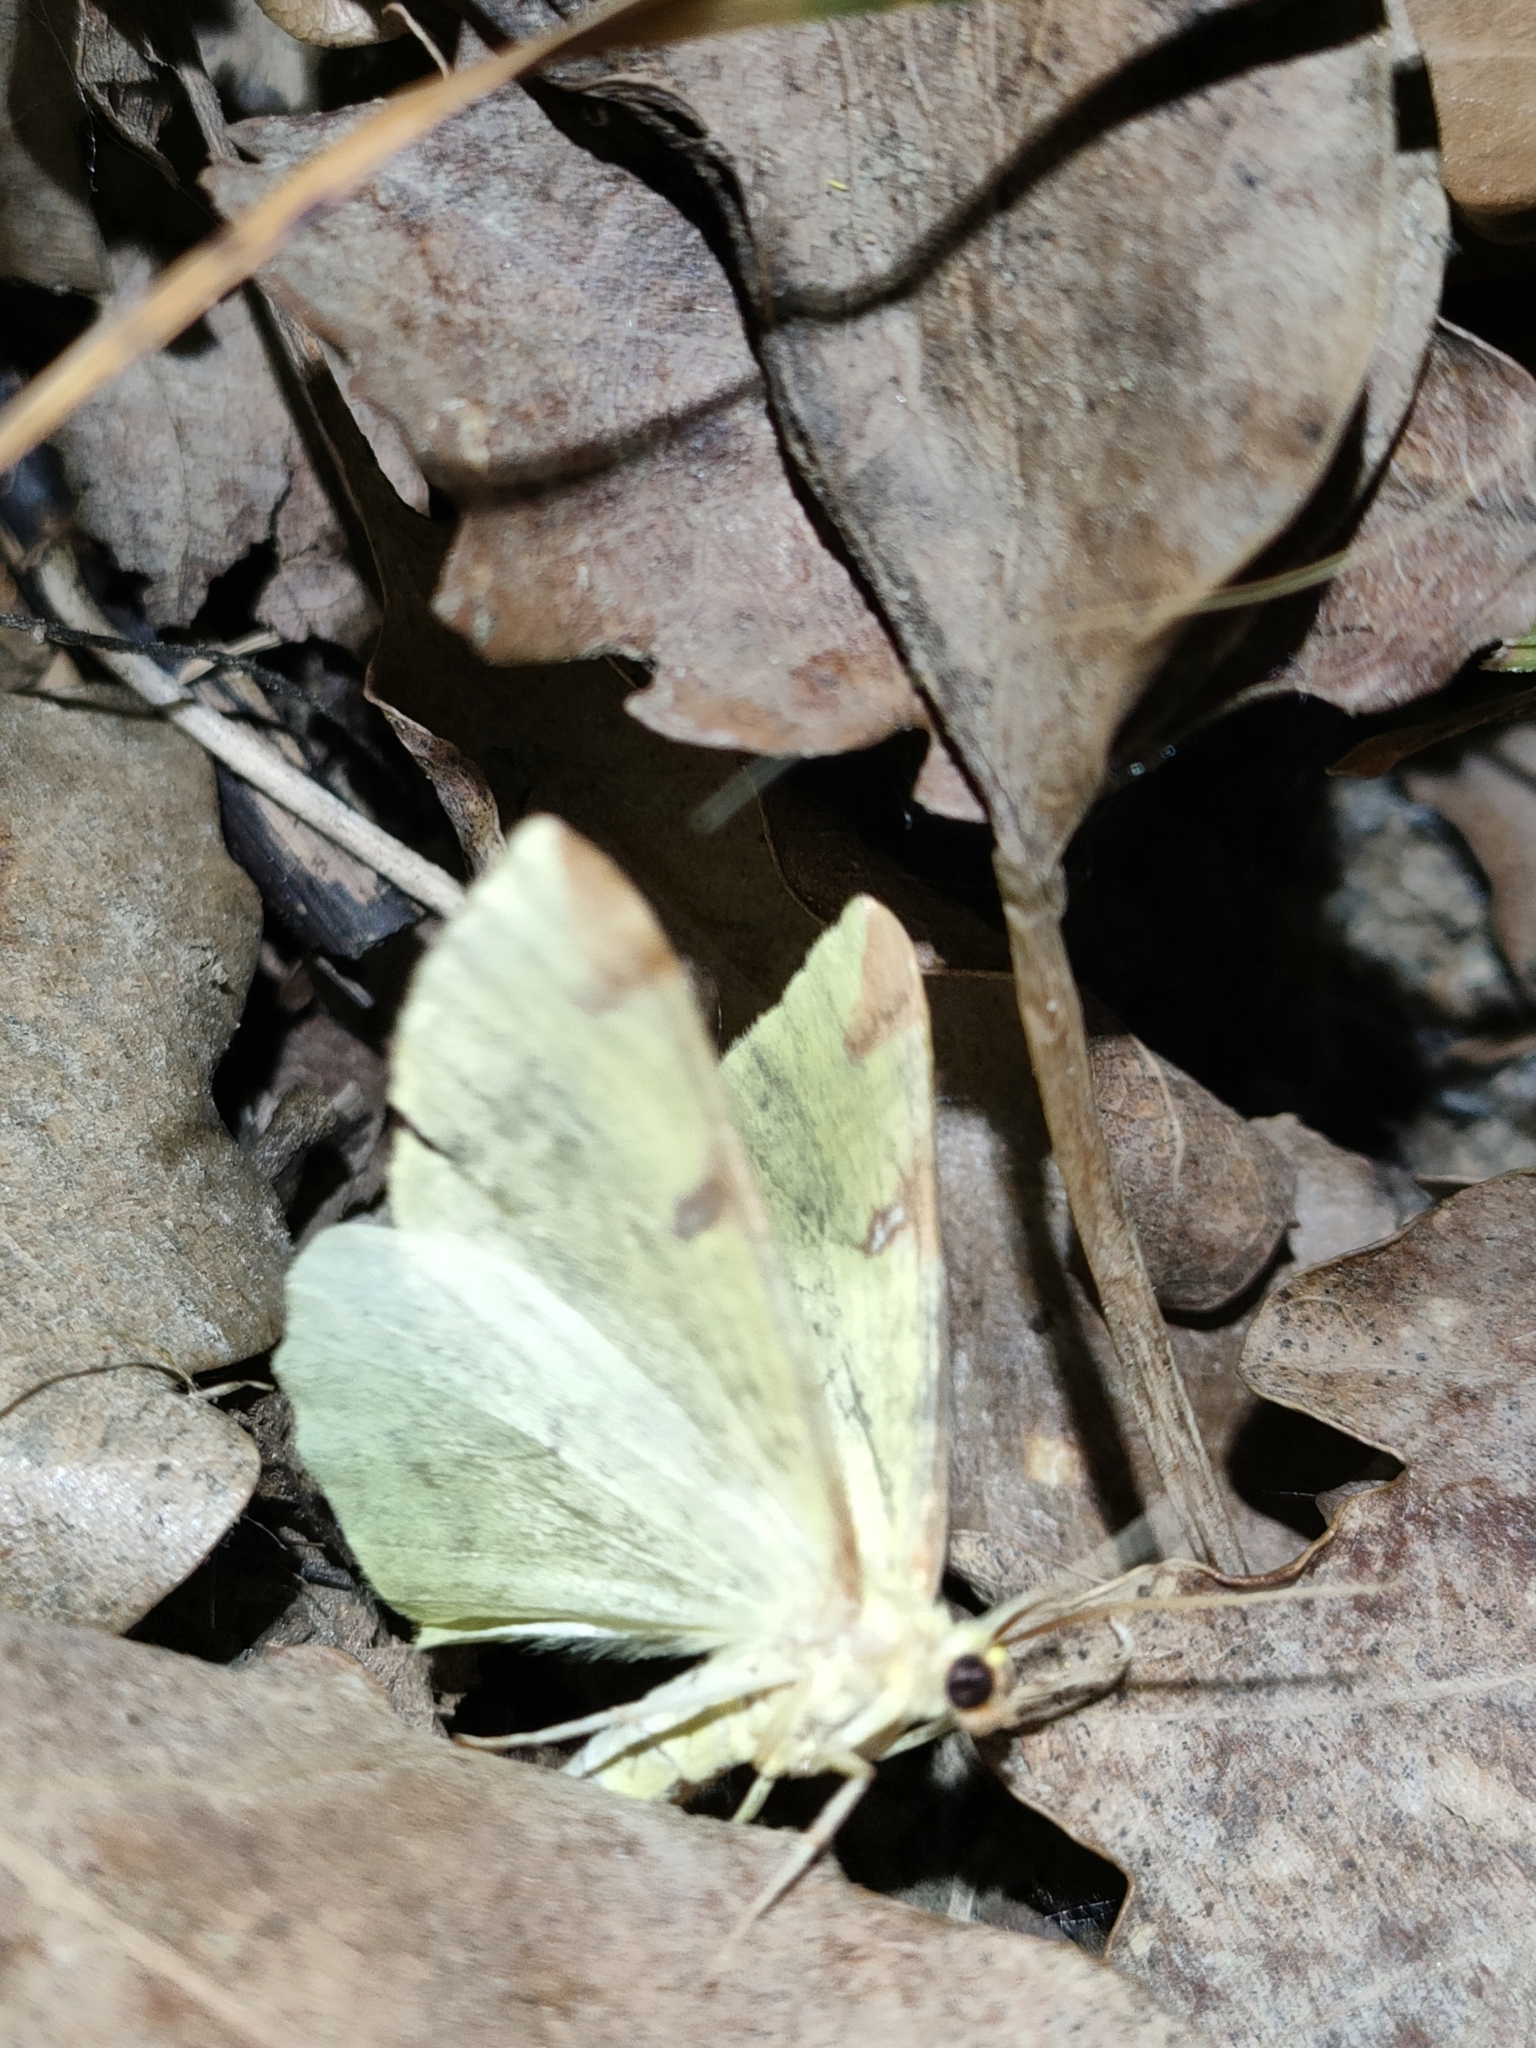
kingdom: Animalia
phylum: Arthropoda
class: Insecta
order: Lepidoptera
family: Geometridae
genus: Opisthograptis
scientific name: Opisthograptis luteolata
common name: Brimstone moth
